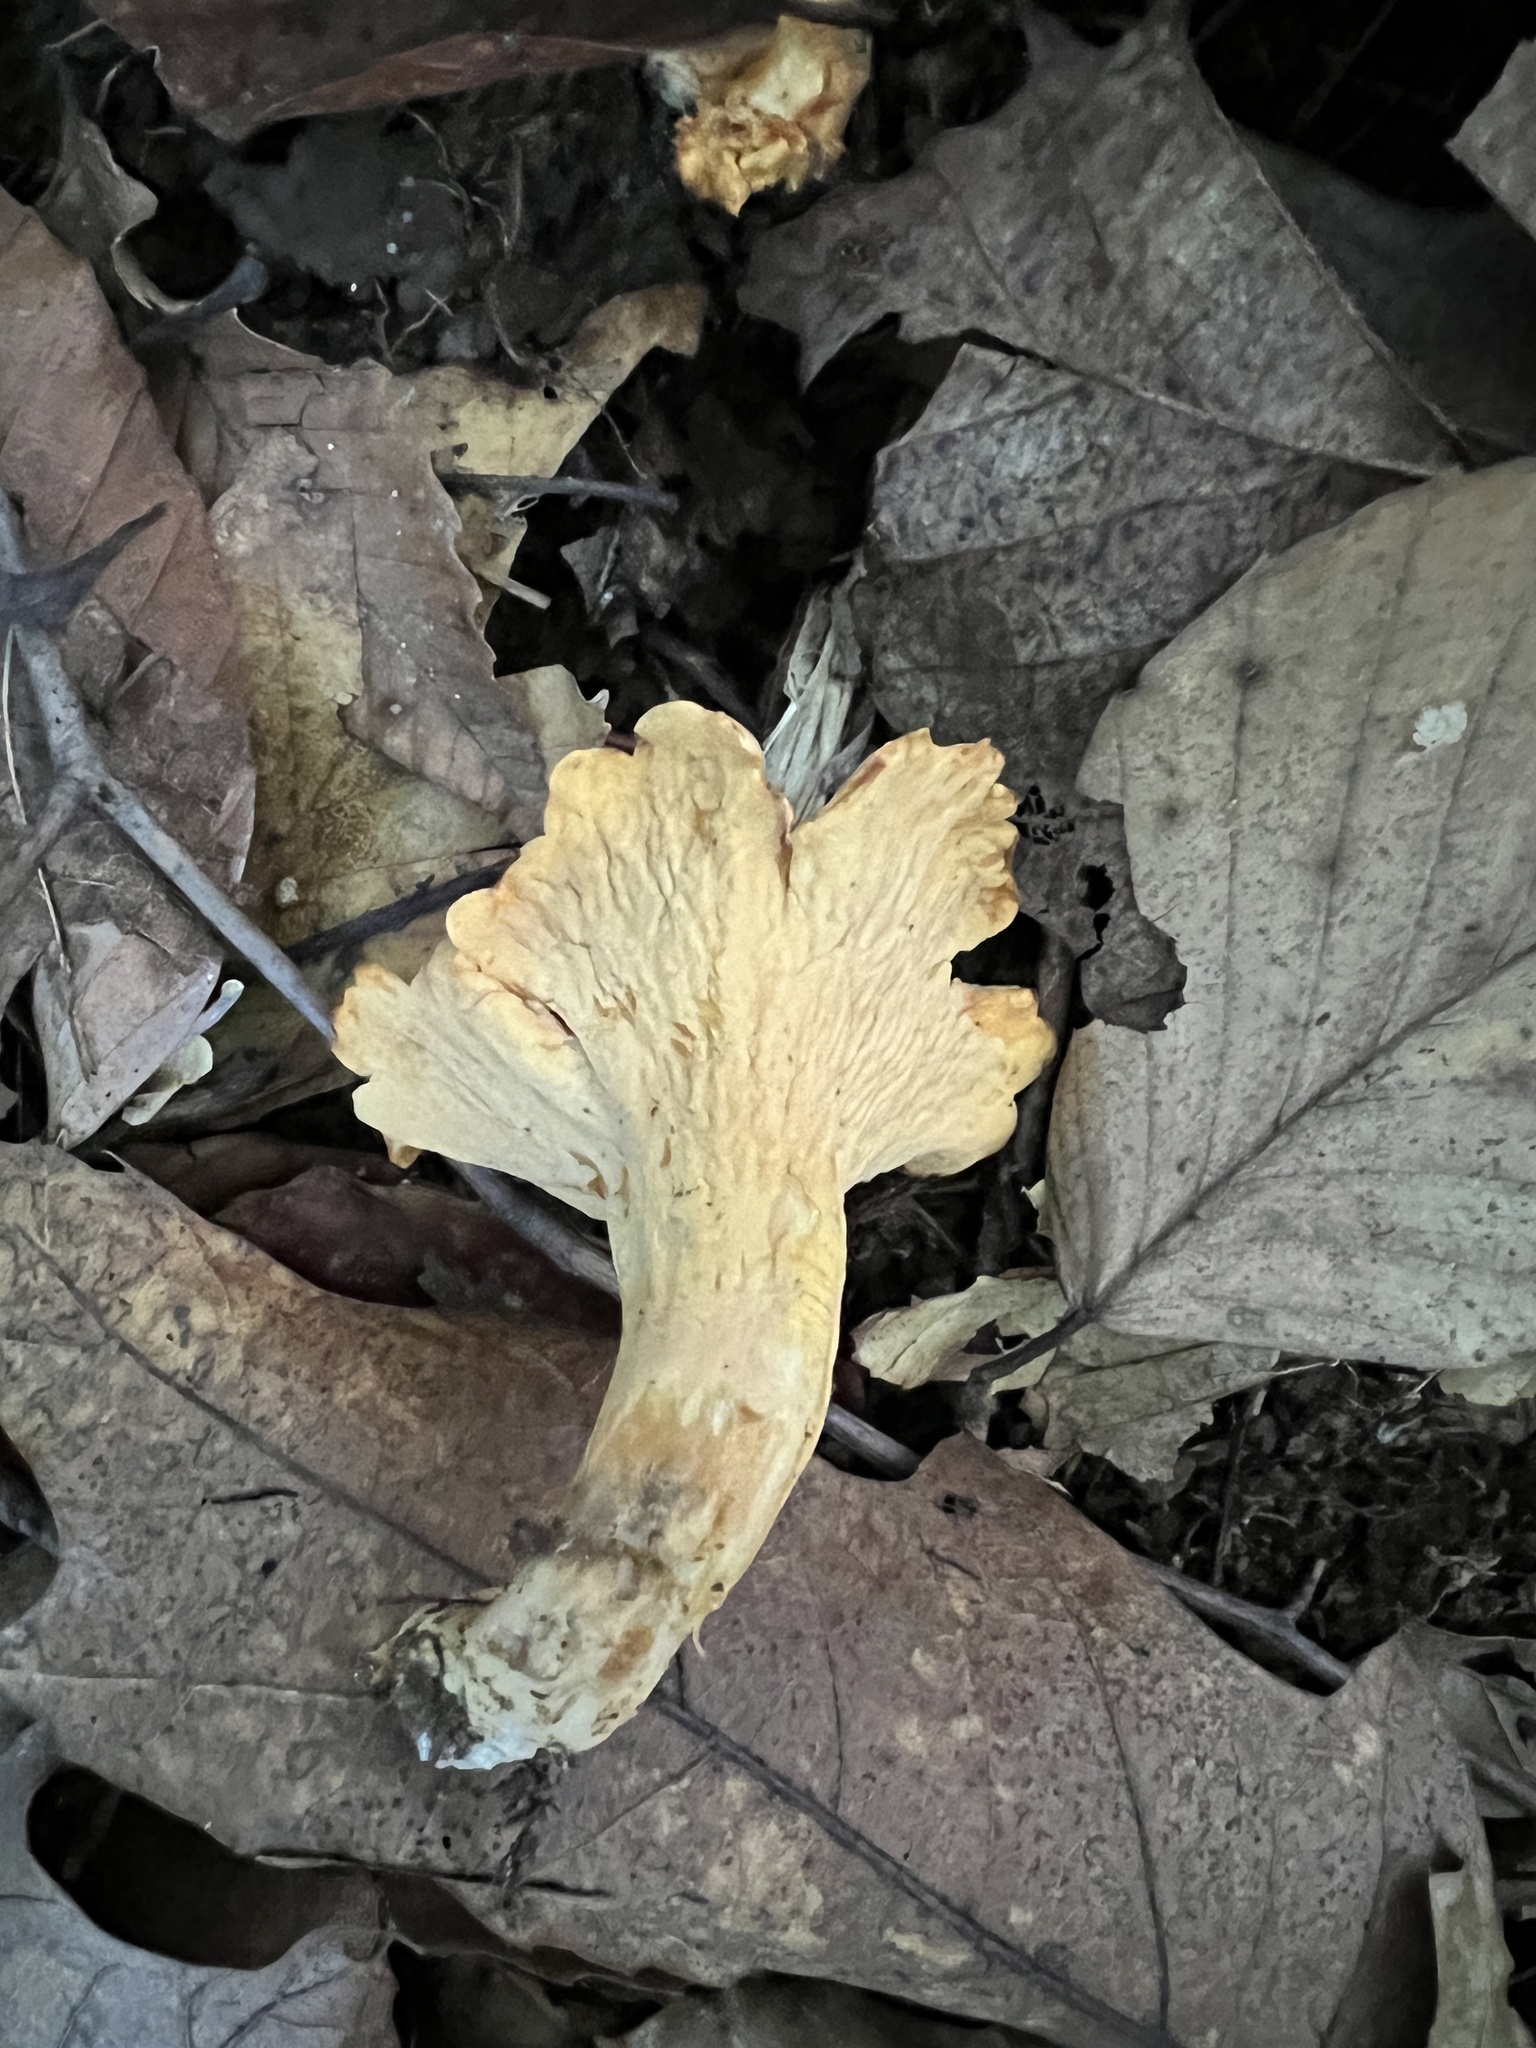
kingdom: Fungi
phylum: Basidiomycota
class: Agaricomycetes
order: Cantharellales
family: Hydnaceae
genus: Cantharellus
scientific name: Cantharellus flavolateritius
